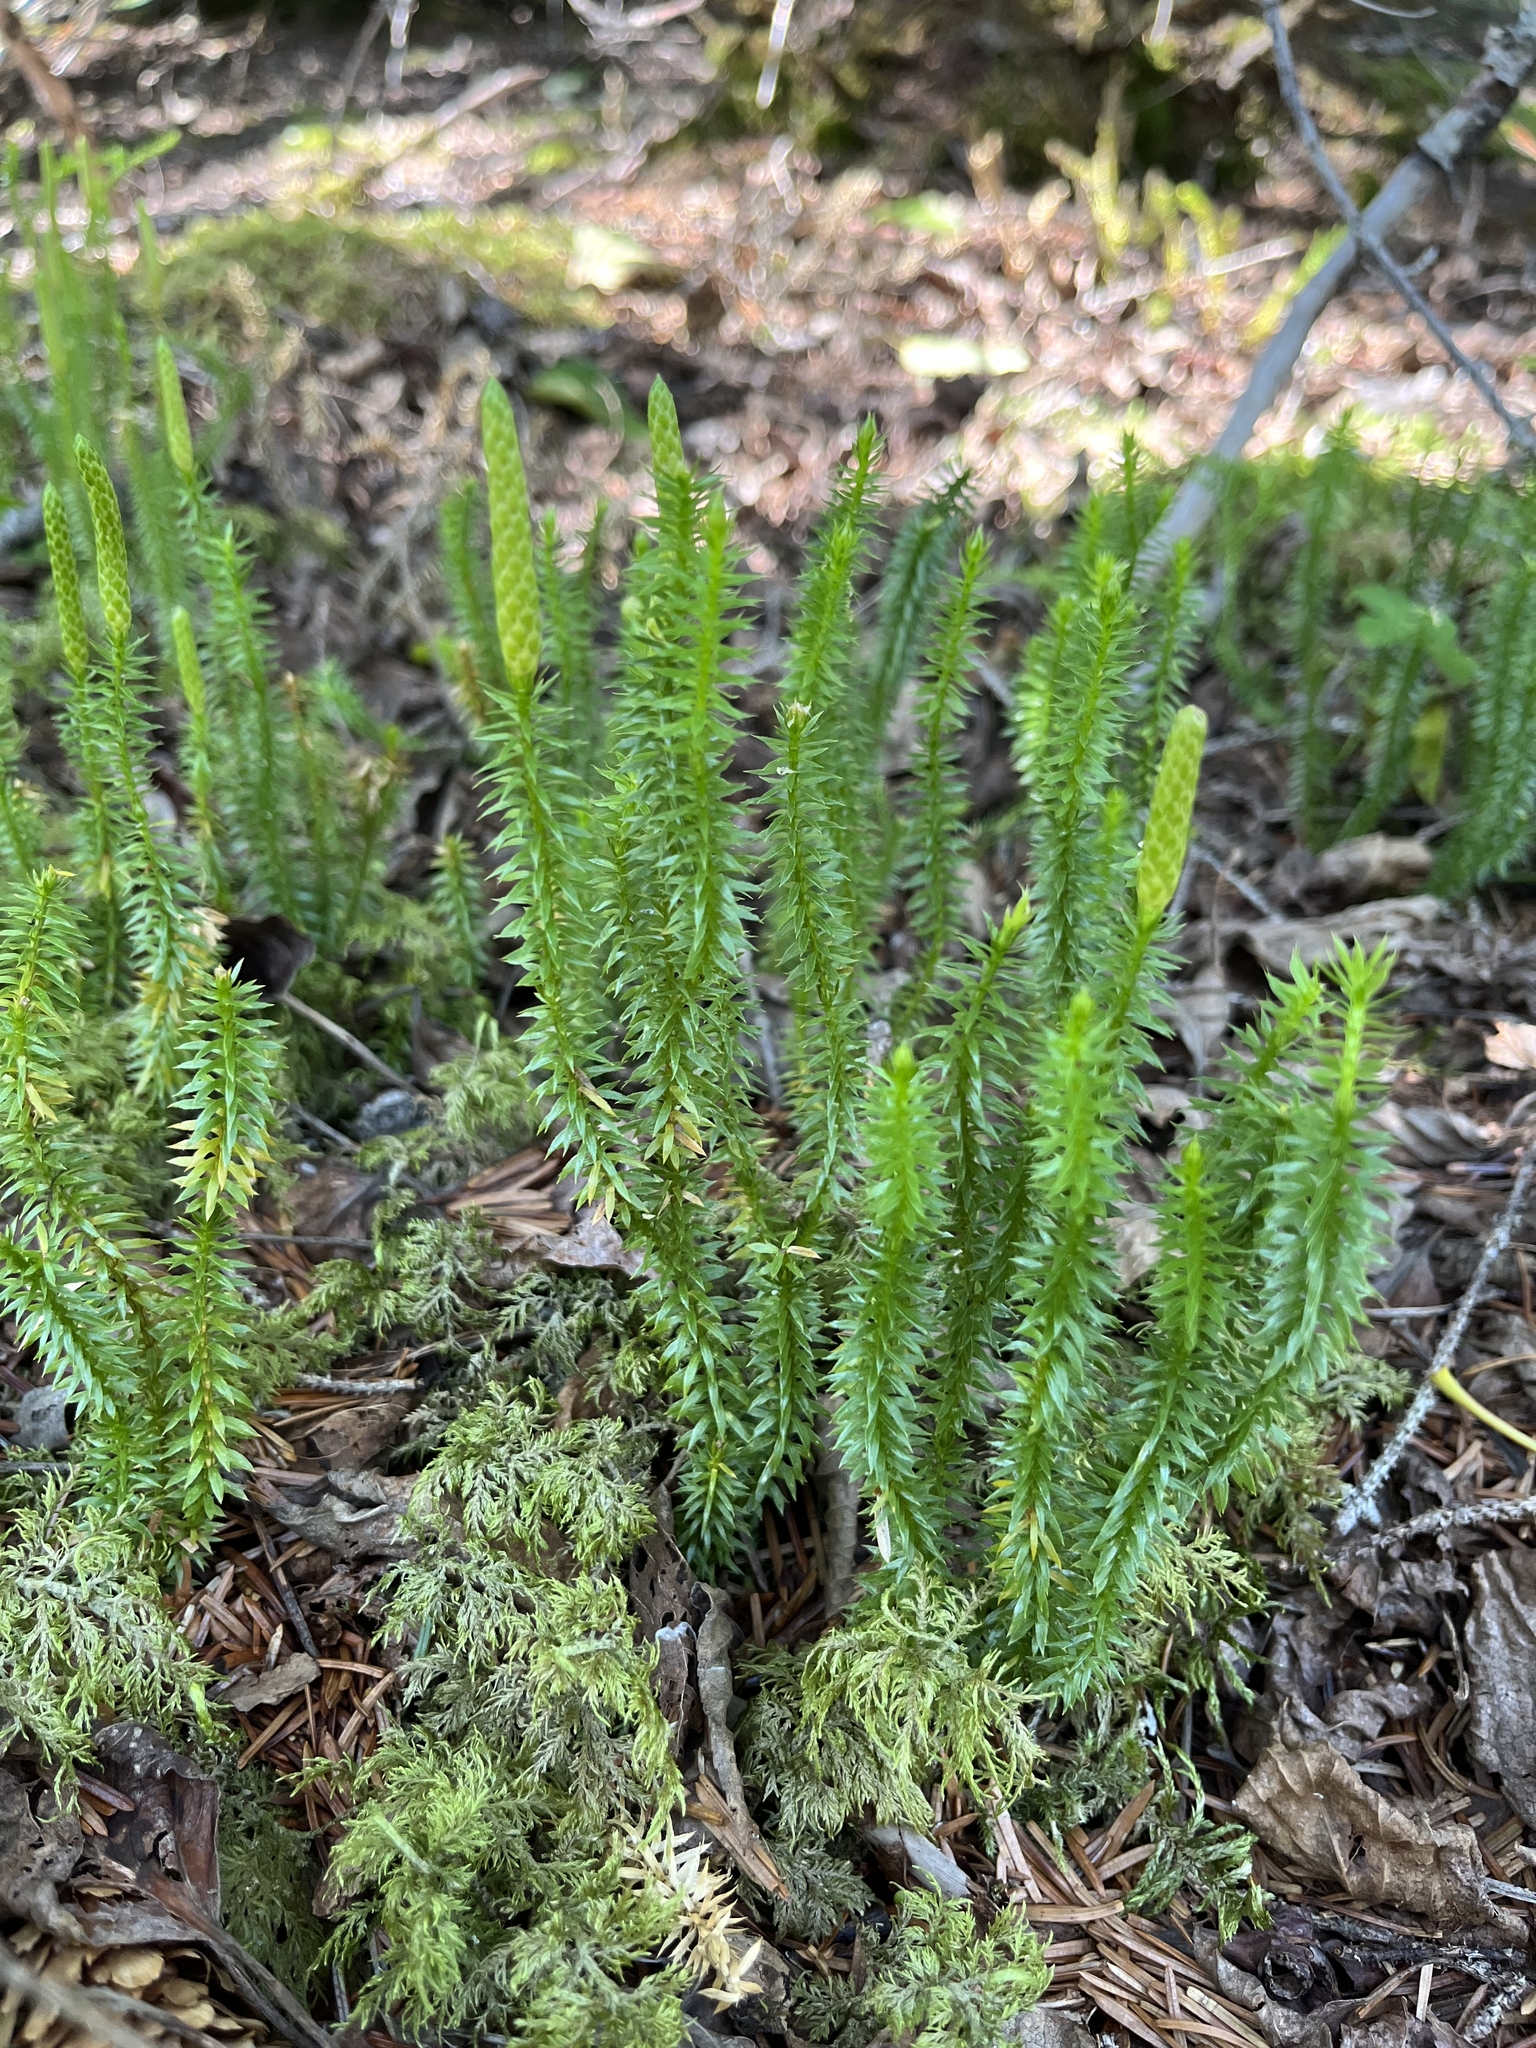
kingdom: Plantae
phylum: Tracheophyta
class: Lycopodiopsida
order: Lycopodiales
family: Lycopodiaceae
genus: Spinulum
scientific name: Spinulum annotinum
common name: Interrupted club-moss
